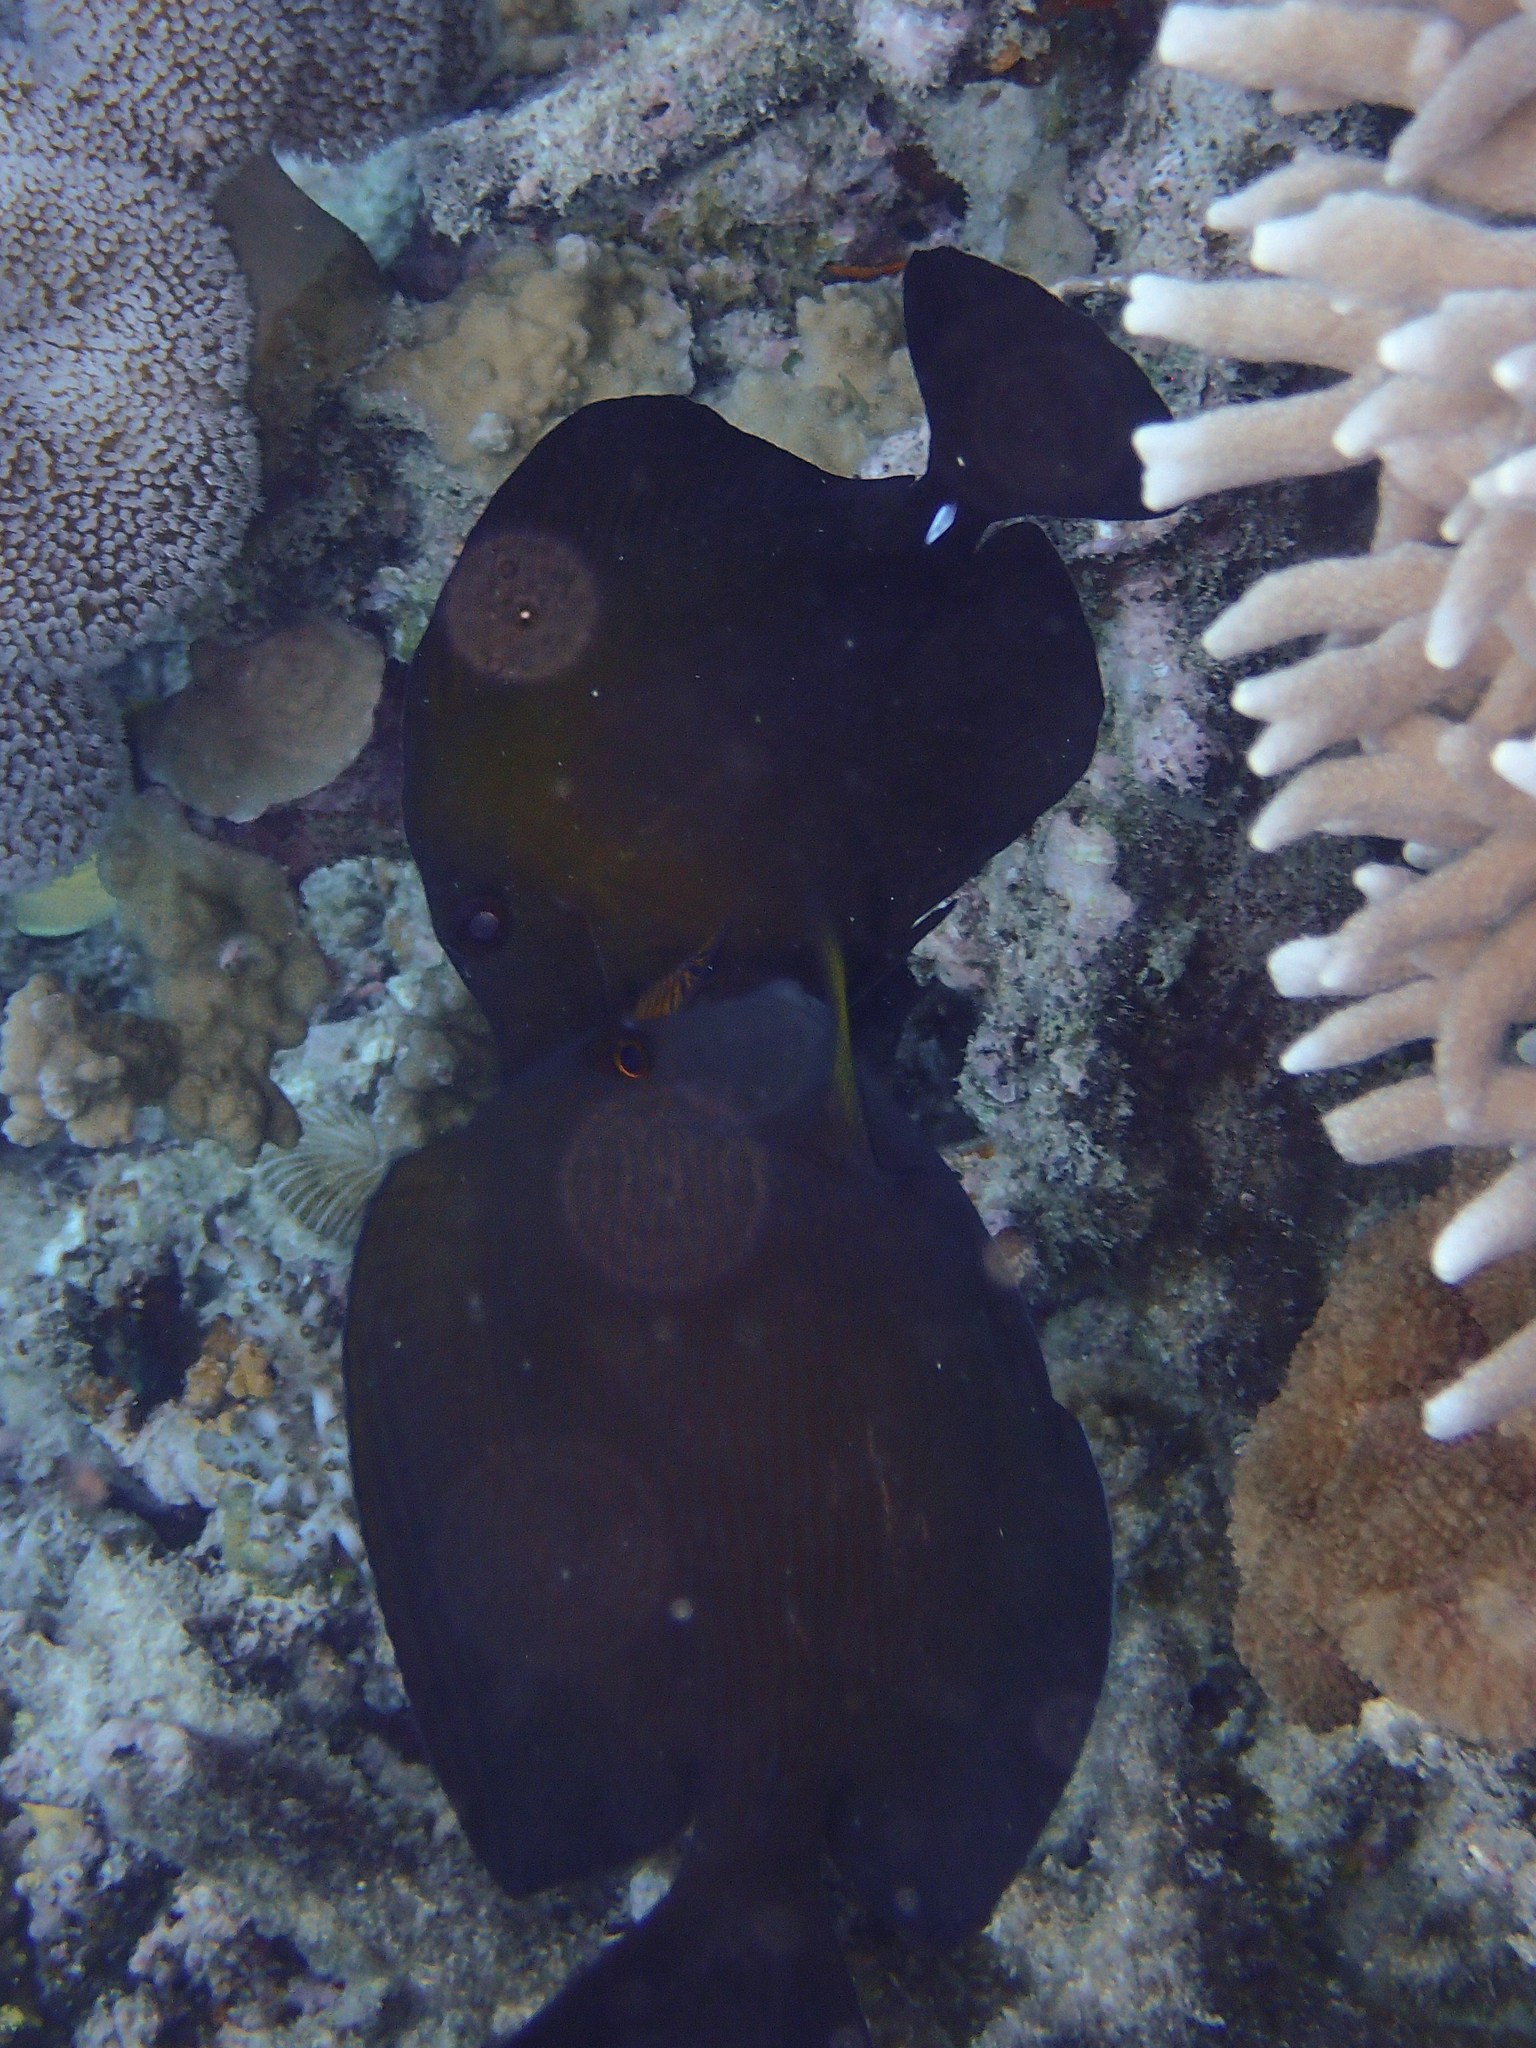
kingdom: Animalia
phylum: Chordata
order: Perciformes
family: Acanthuridae
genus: Zebrasoma
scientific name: Zebrasoma scopas
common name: Twotone tang
